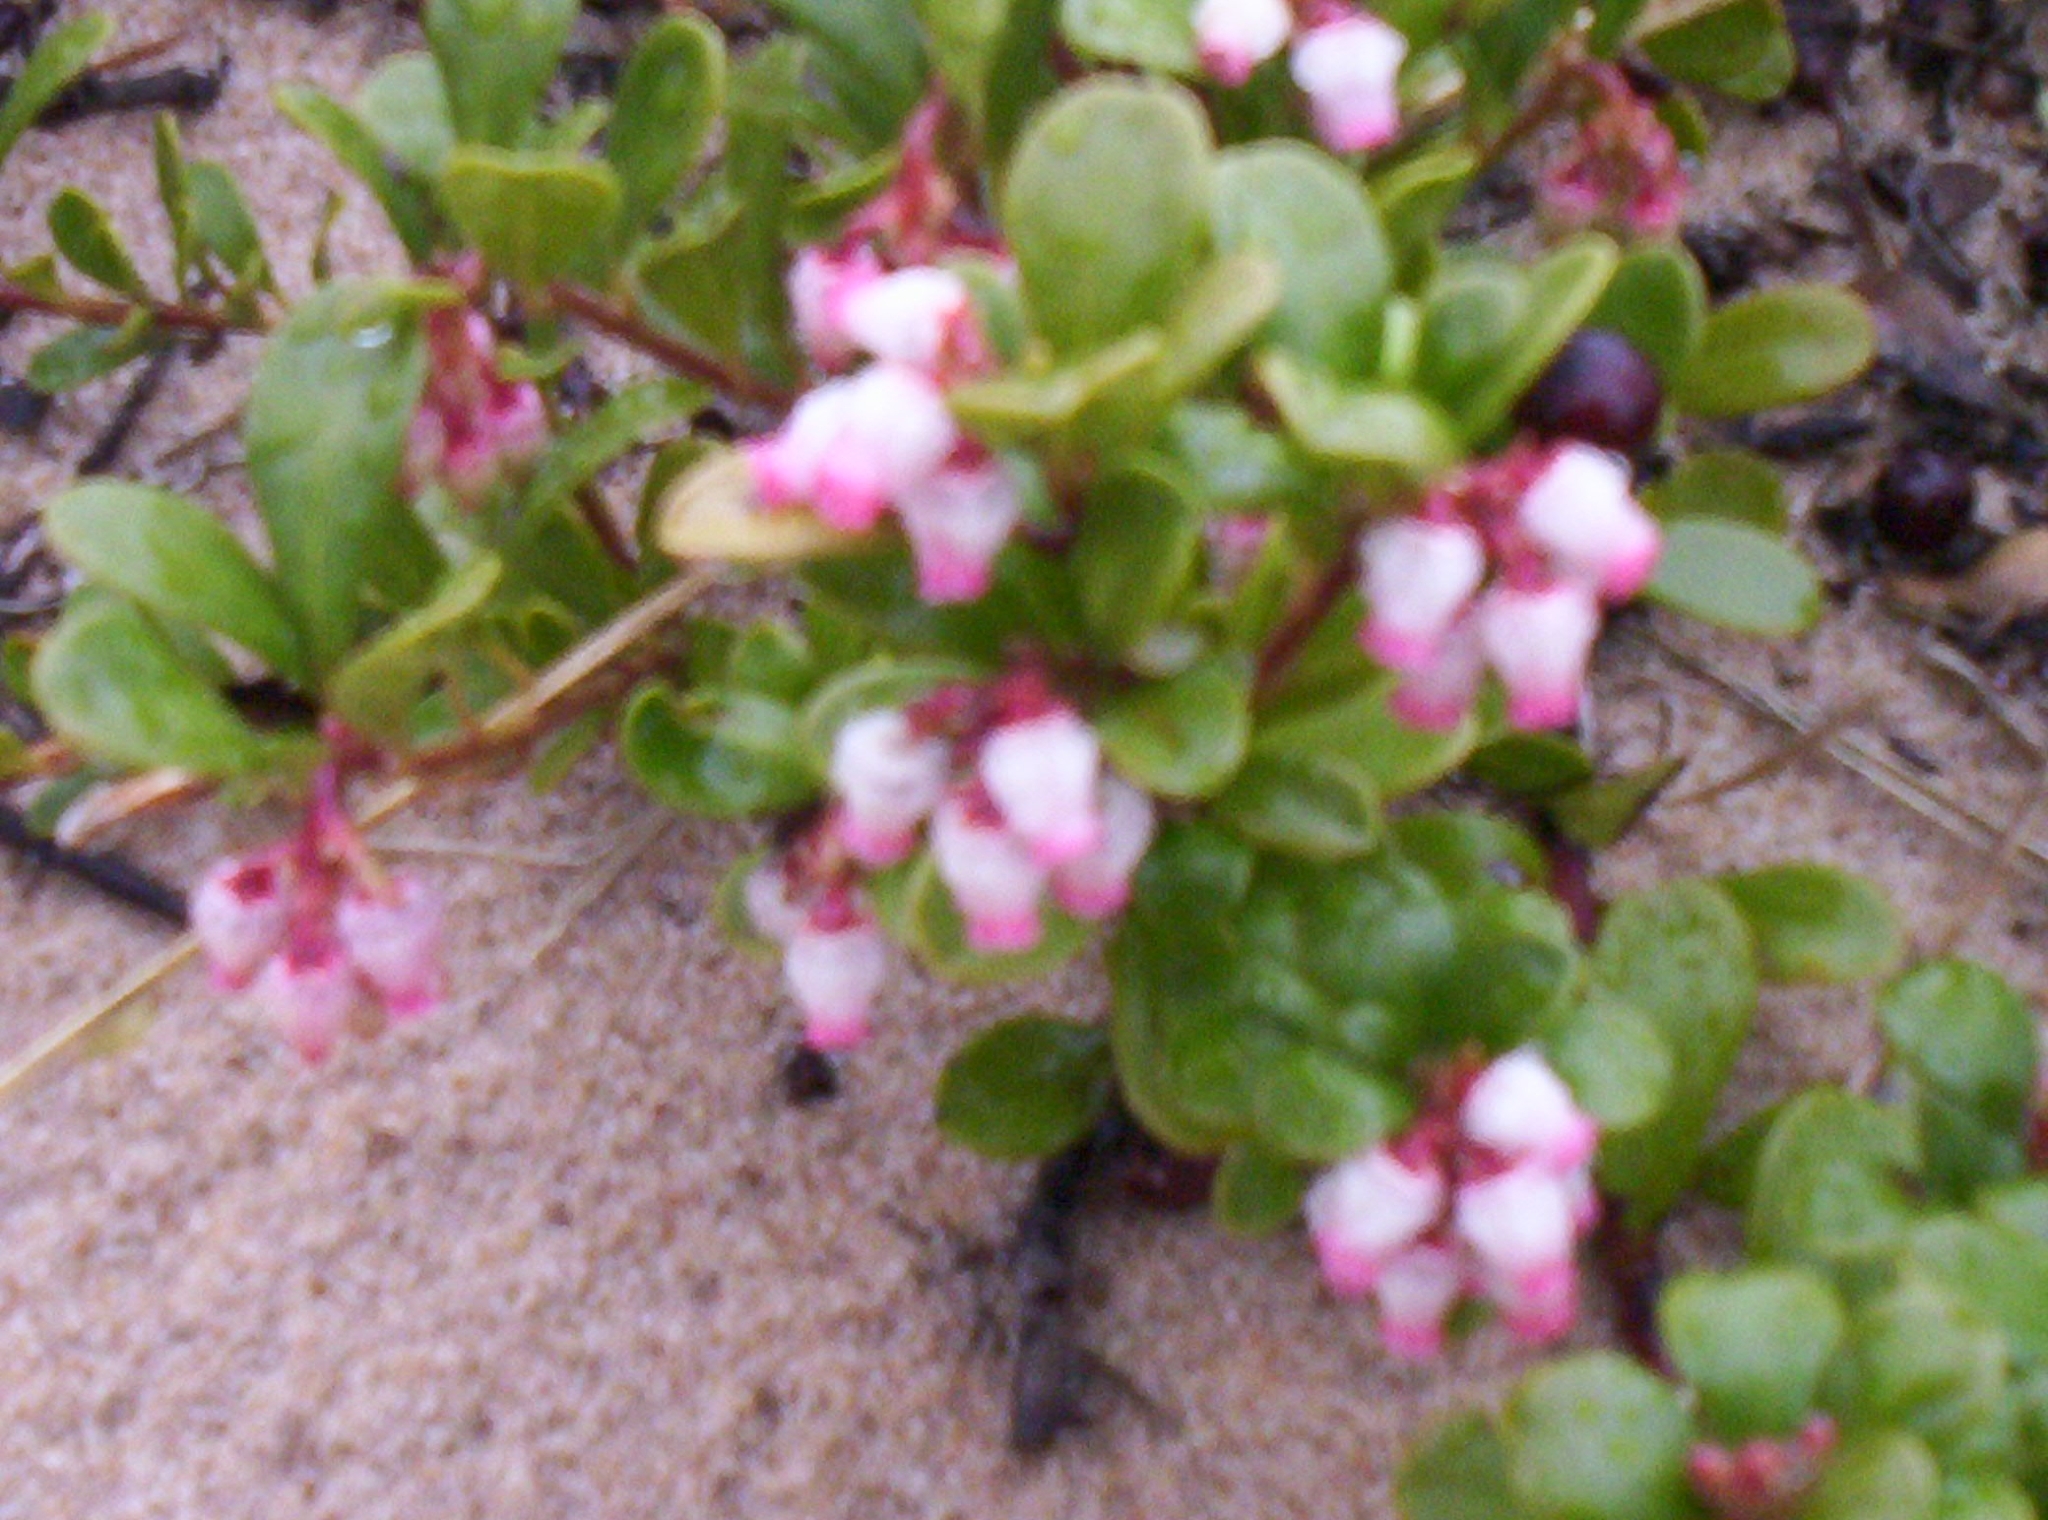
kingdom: Plantae
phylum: Tracheophyta
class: Magnoliopsida
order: Ericales
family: Ericaceae
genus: Arctostaphylos
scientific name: Arctostaphylos uva-ursi
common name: Bearberry
